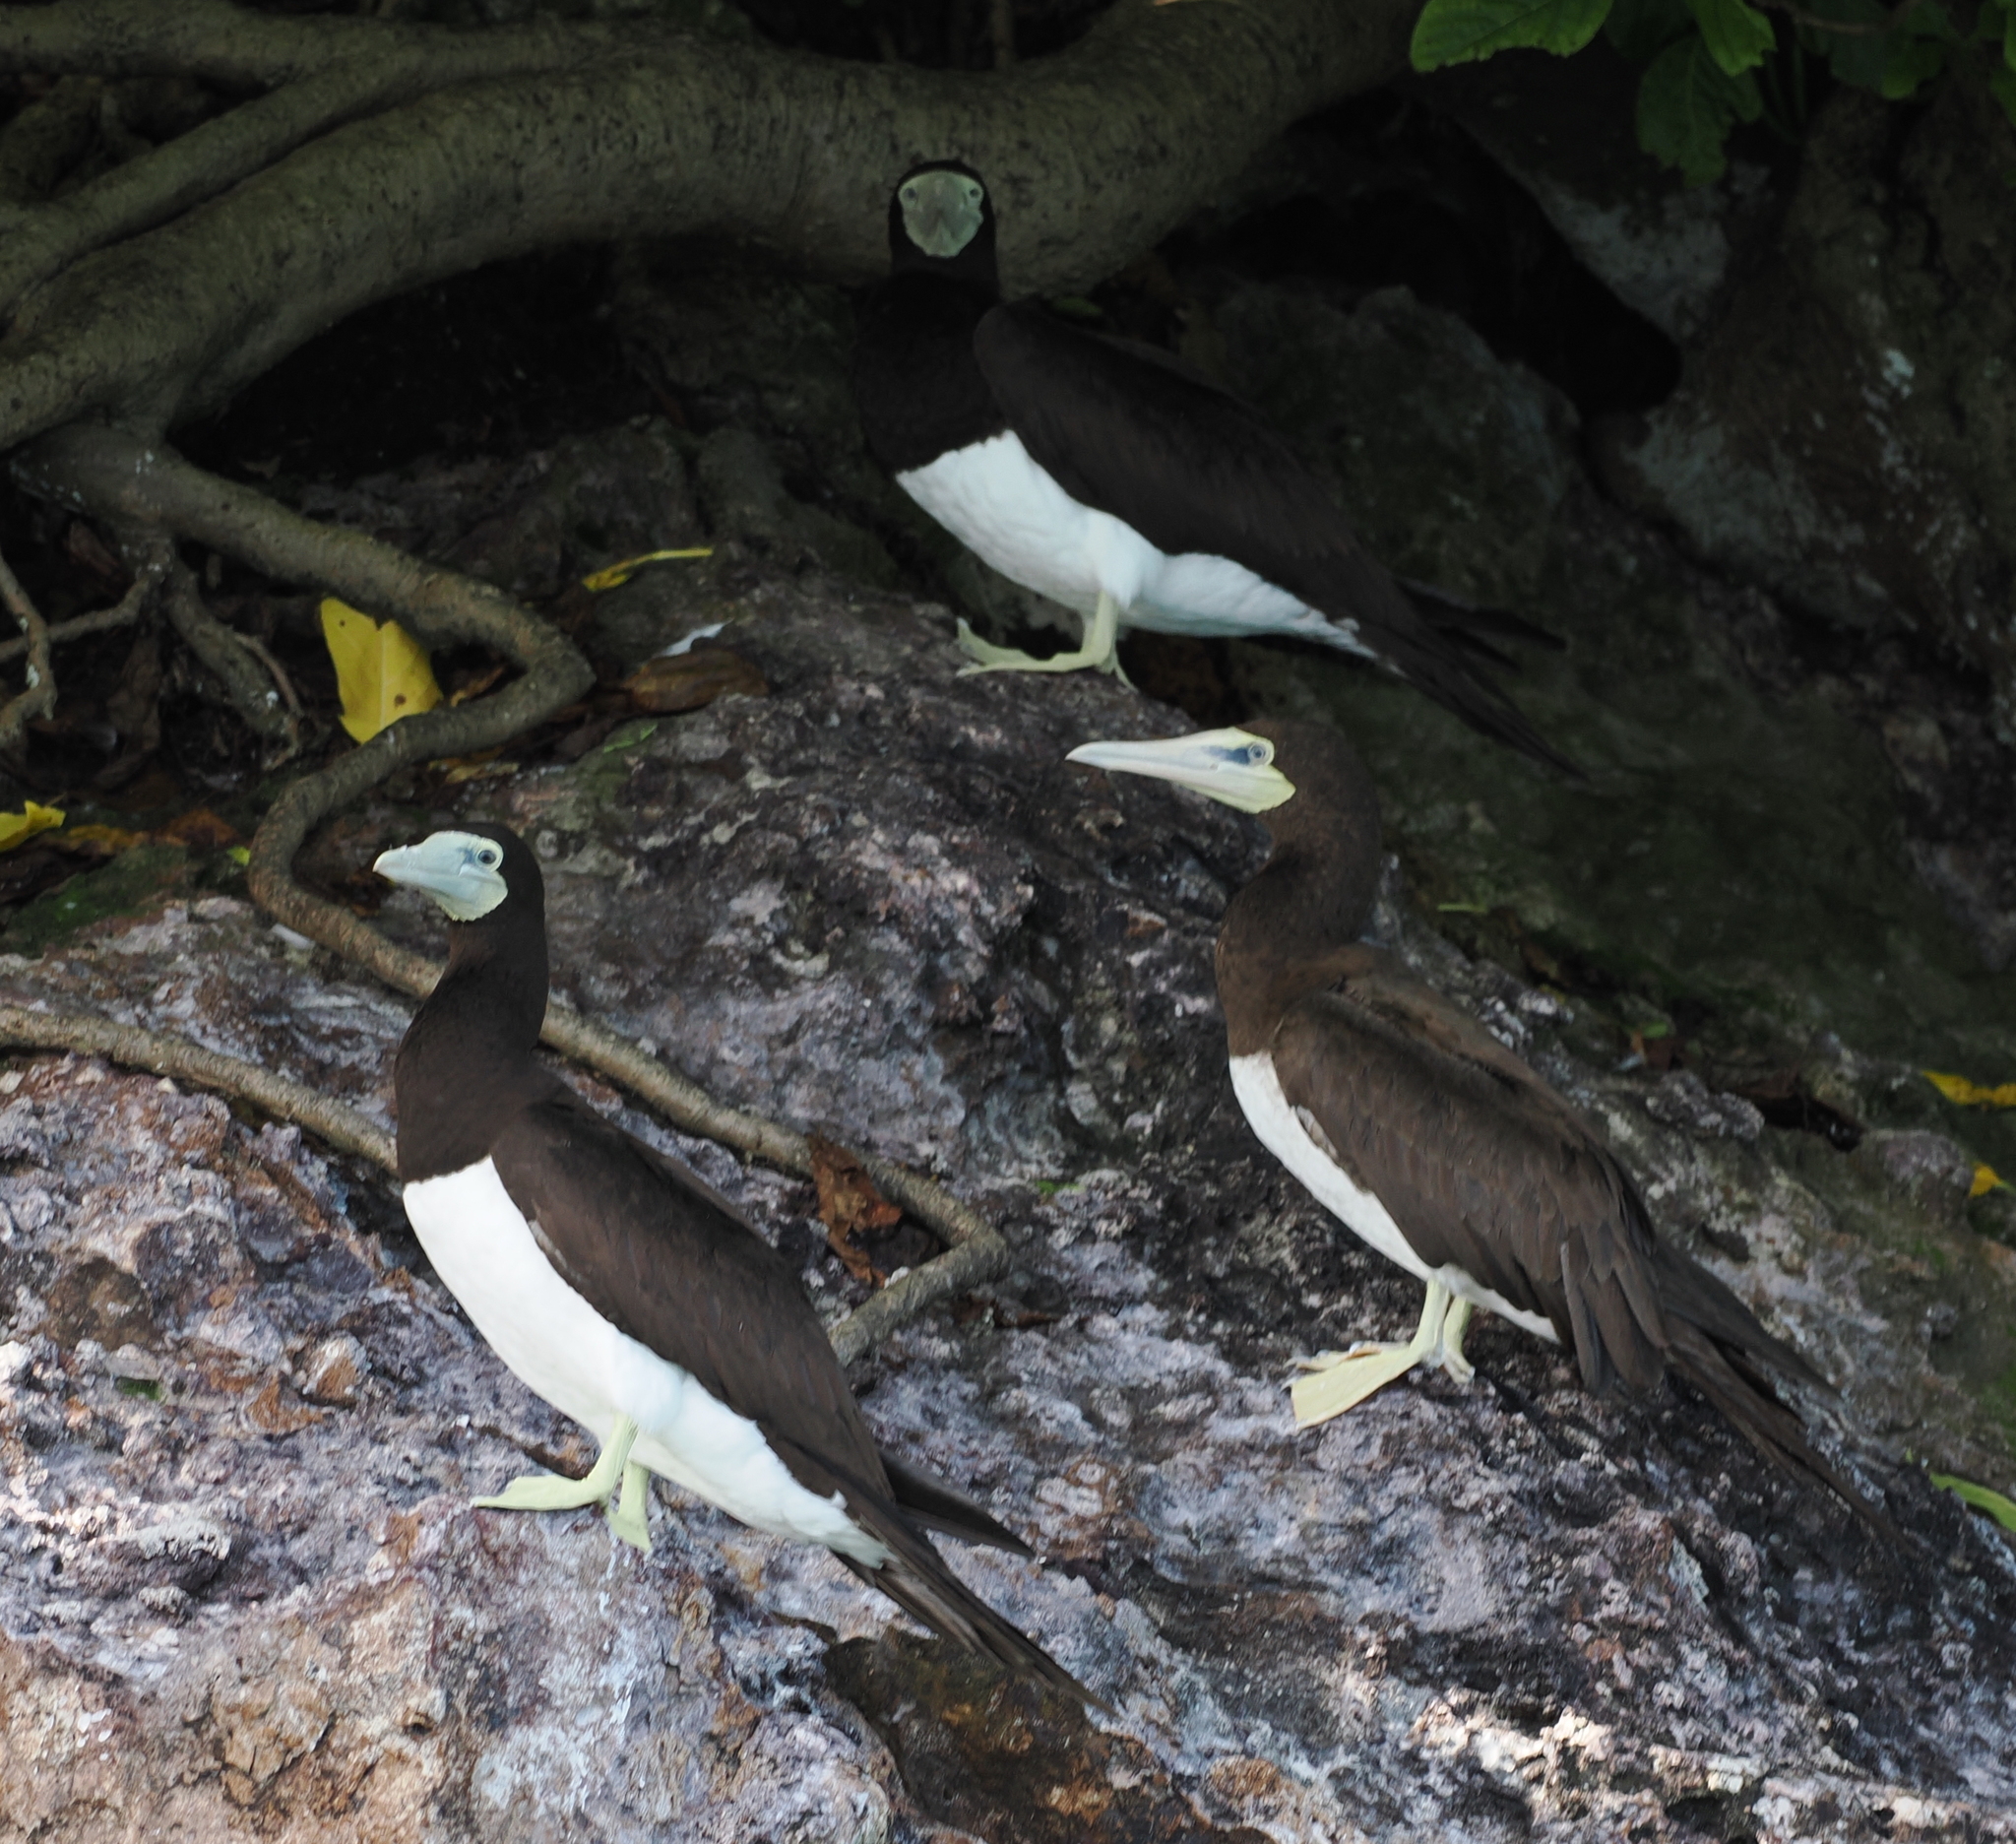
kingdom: Animalia
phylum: Chordata
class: Aves
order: Suliformes
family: Sulidae
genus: Sula
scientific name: Sula leucogaster
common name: Brown booby
